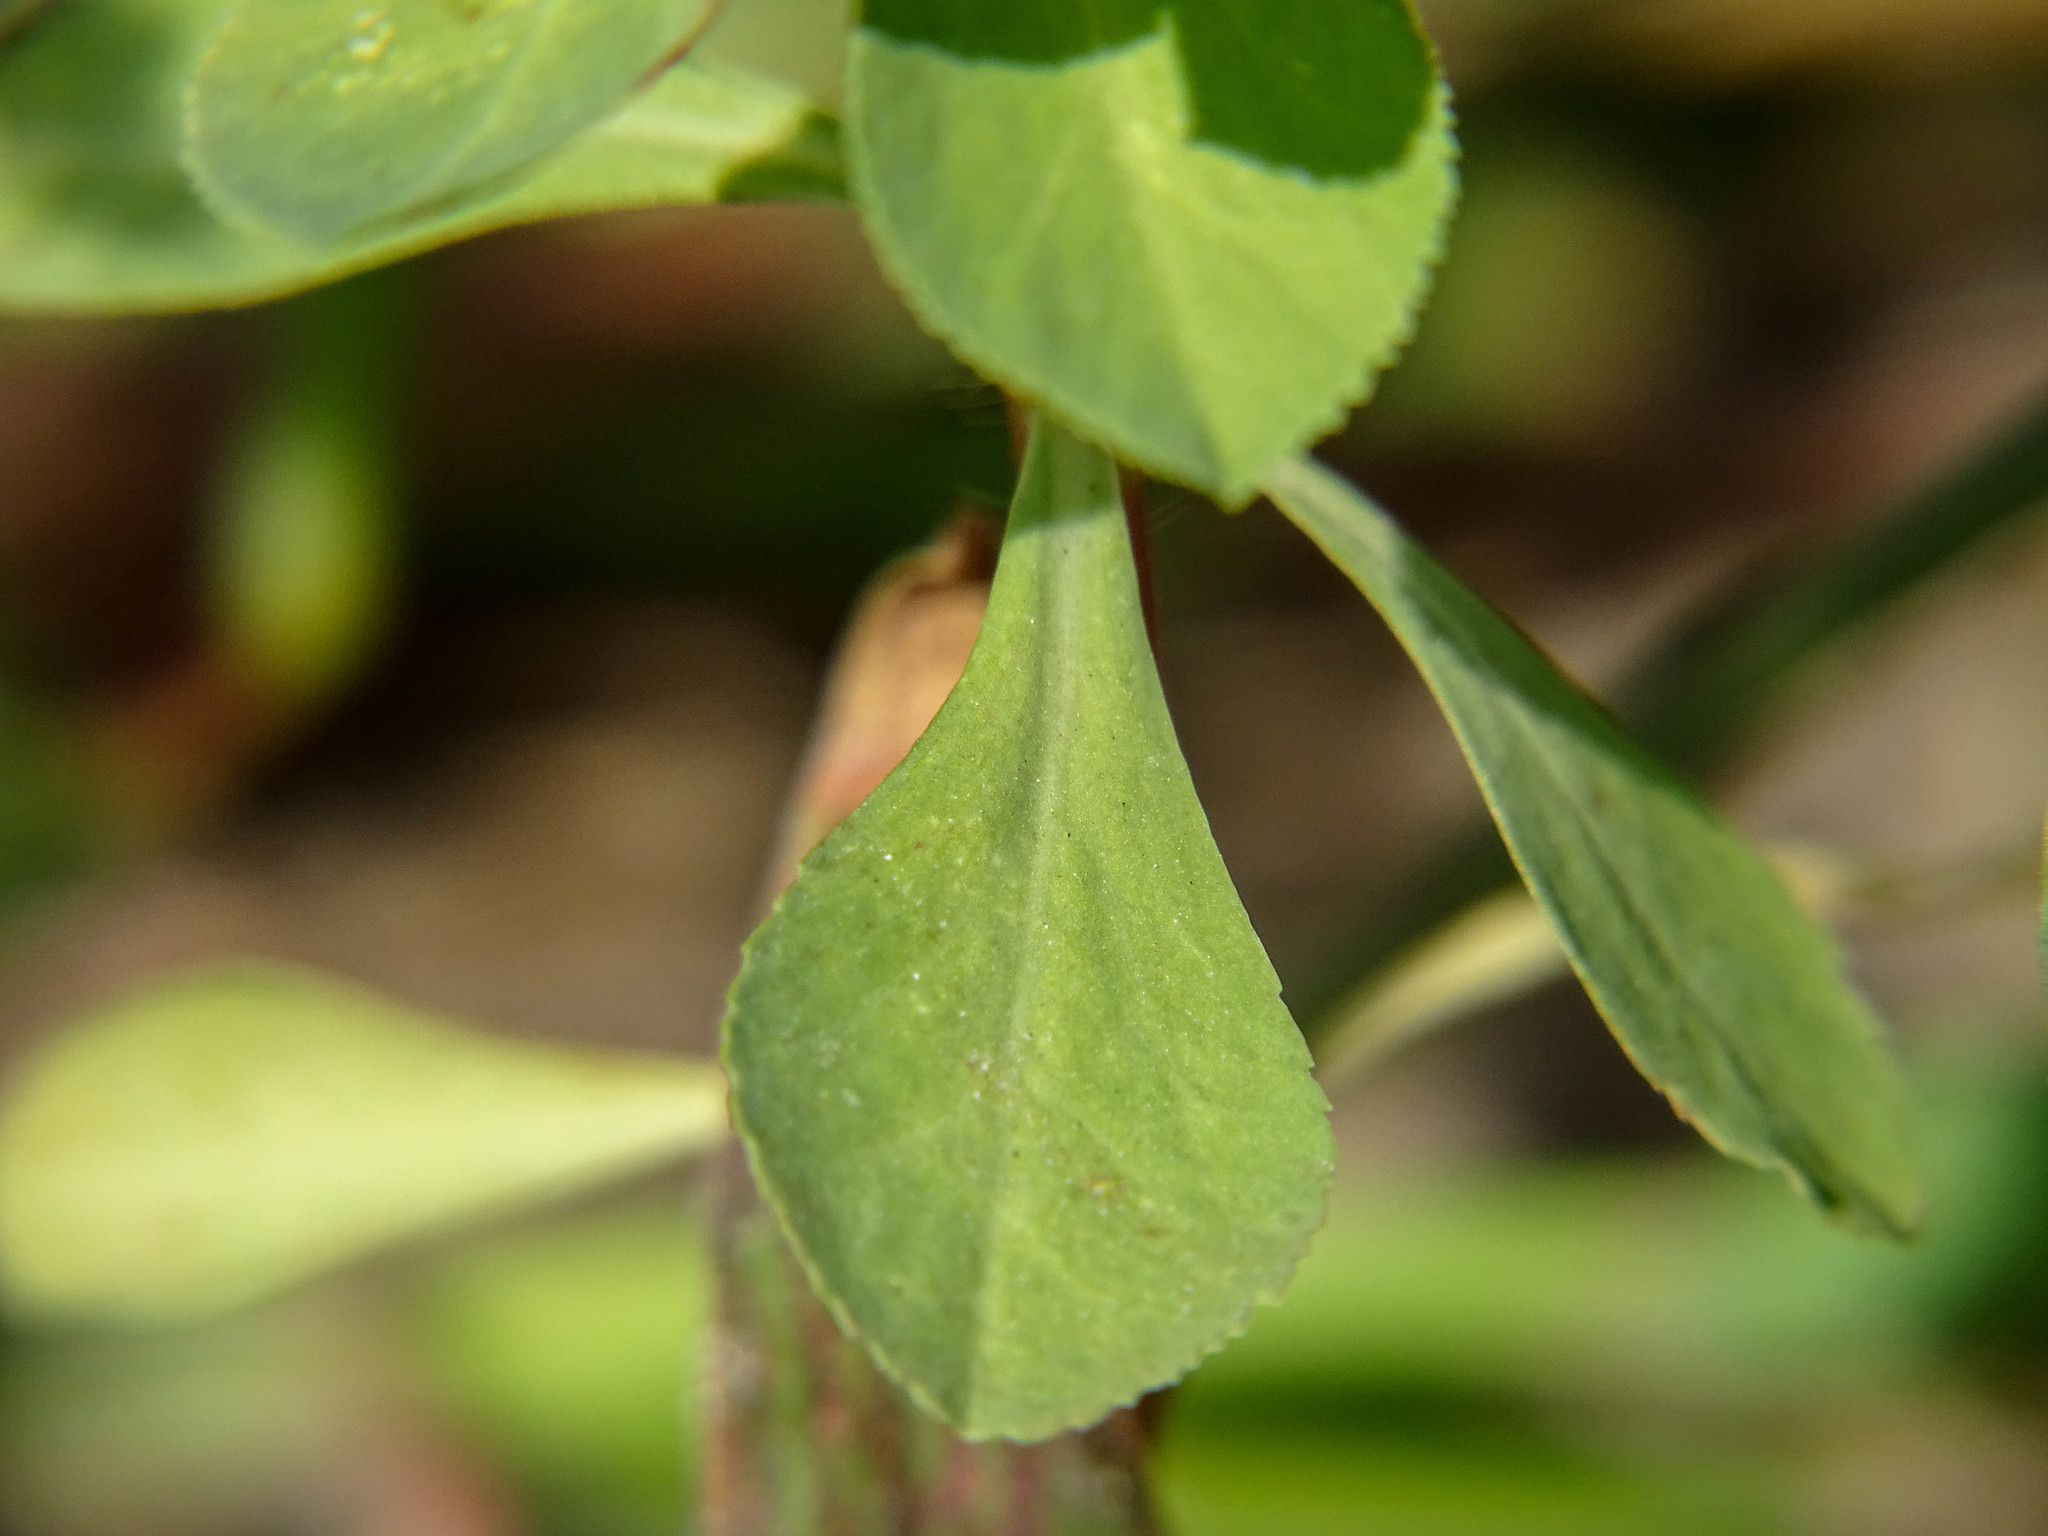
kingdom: Plantae
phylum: Tracheophyta
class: Magnoliopsida
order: Malpighiales
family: Euphorbiaceae
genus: Euphorbia
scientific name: Euphorbia helioscopia
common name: Sun spurge
